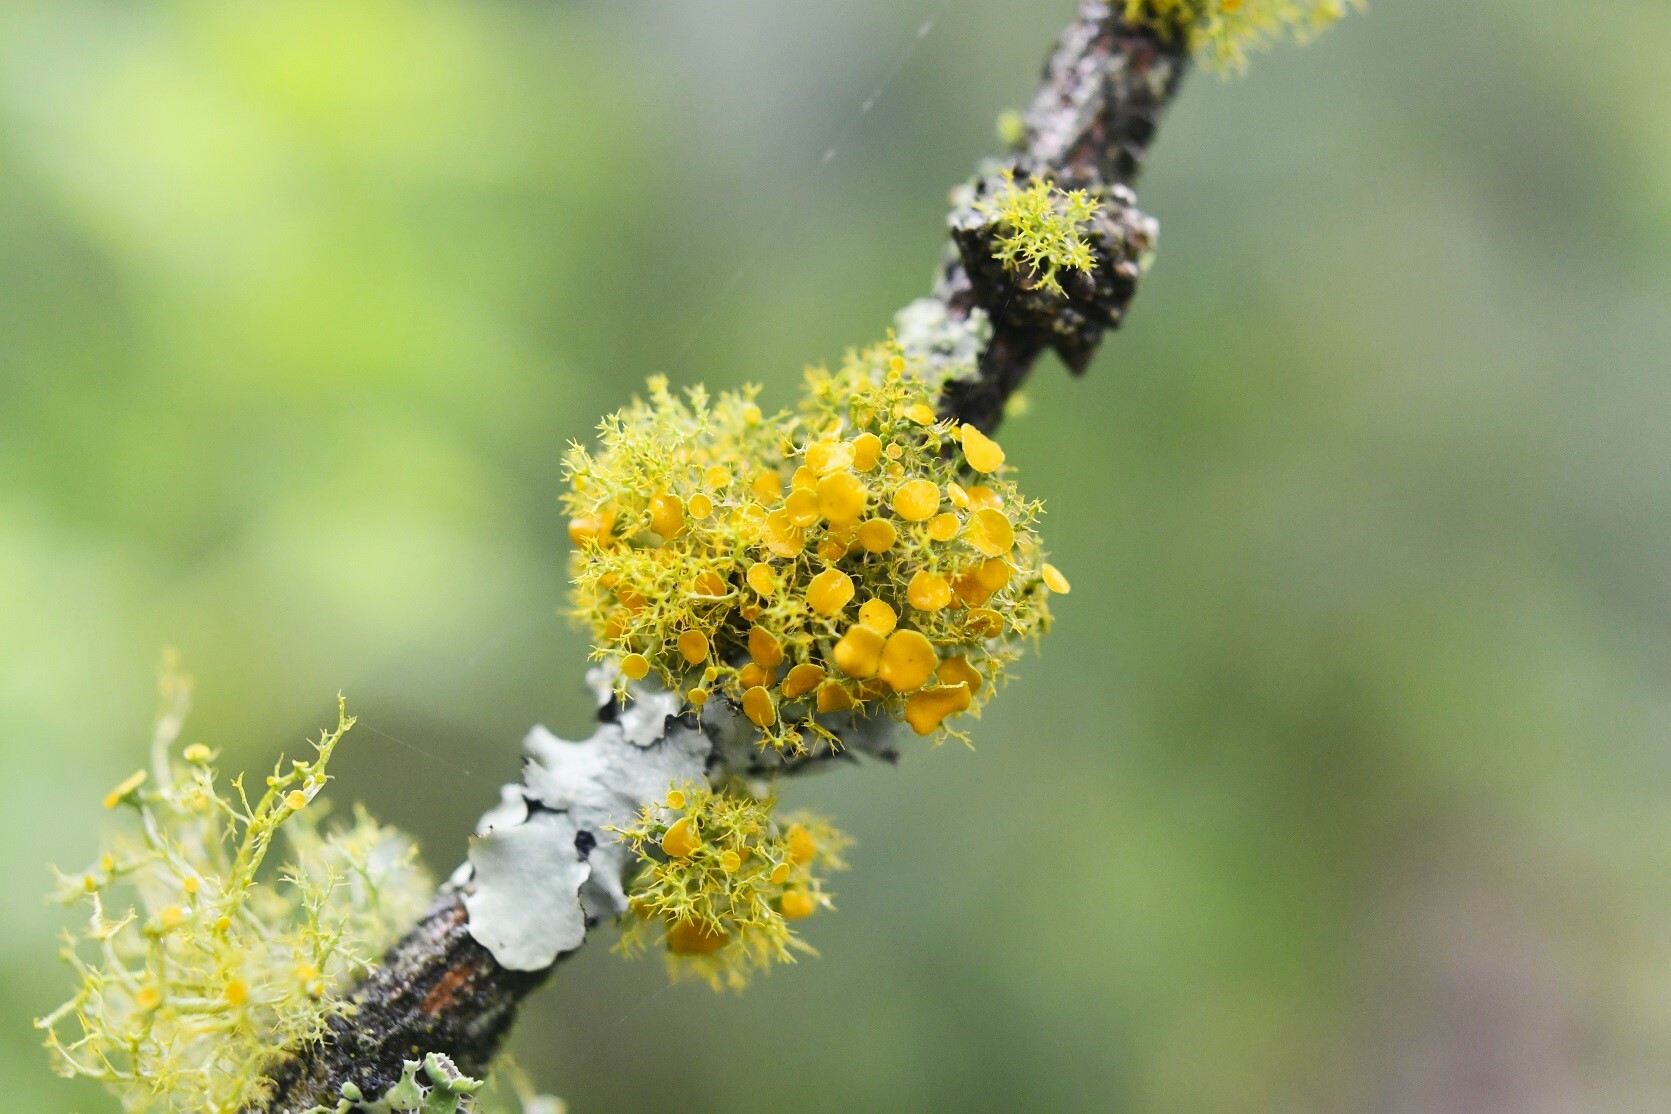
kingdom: Fungi
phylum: Ascomycota
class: Lecanoromycetes
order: Teloschistales
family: Teloschistaceae
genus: Teloschistes
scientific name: Teloschistes exilis
